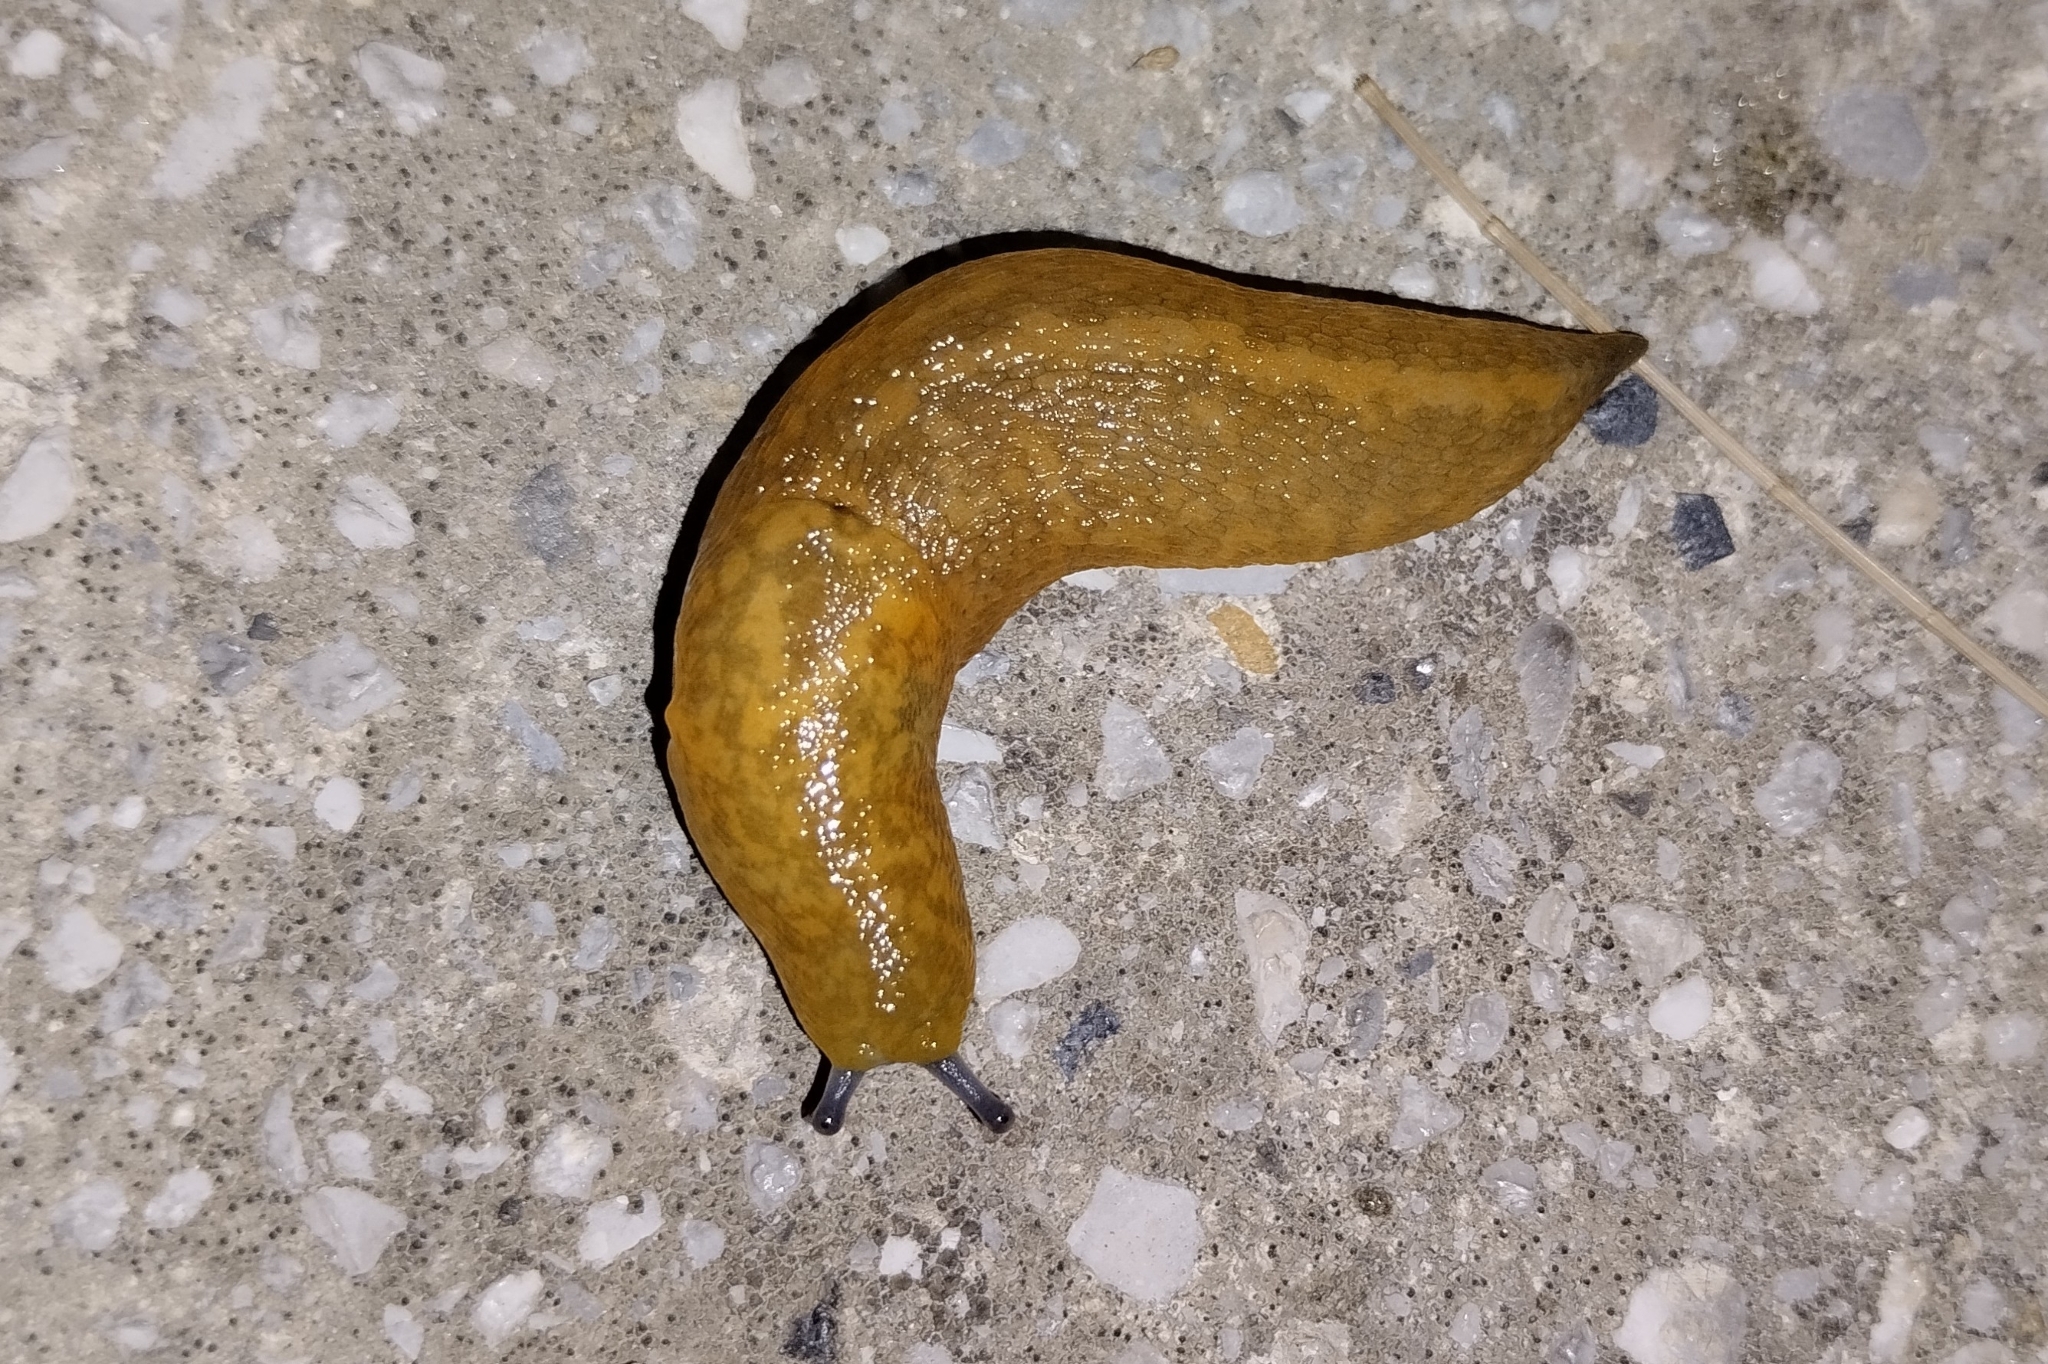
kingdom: Animalia
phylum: Mollusca
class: Gastropoda
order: Stylommatophora
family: Limacidae
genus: Limacus
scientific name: Limacus flavus
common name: Yellow gardenslug
